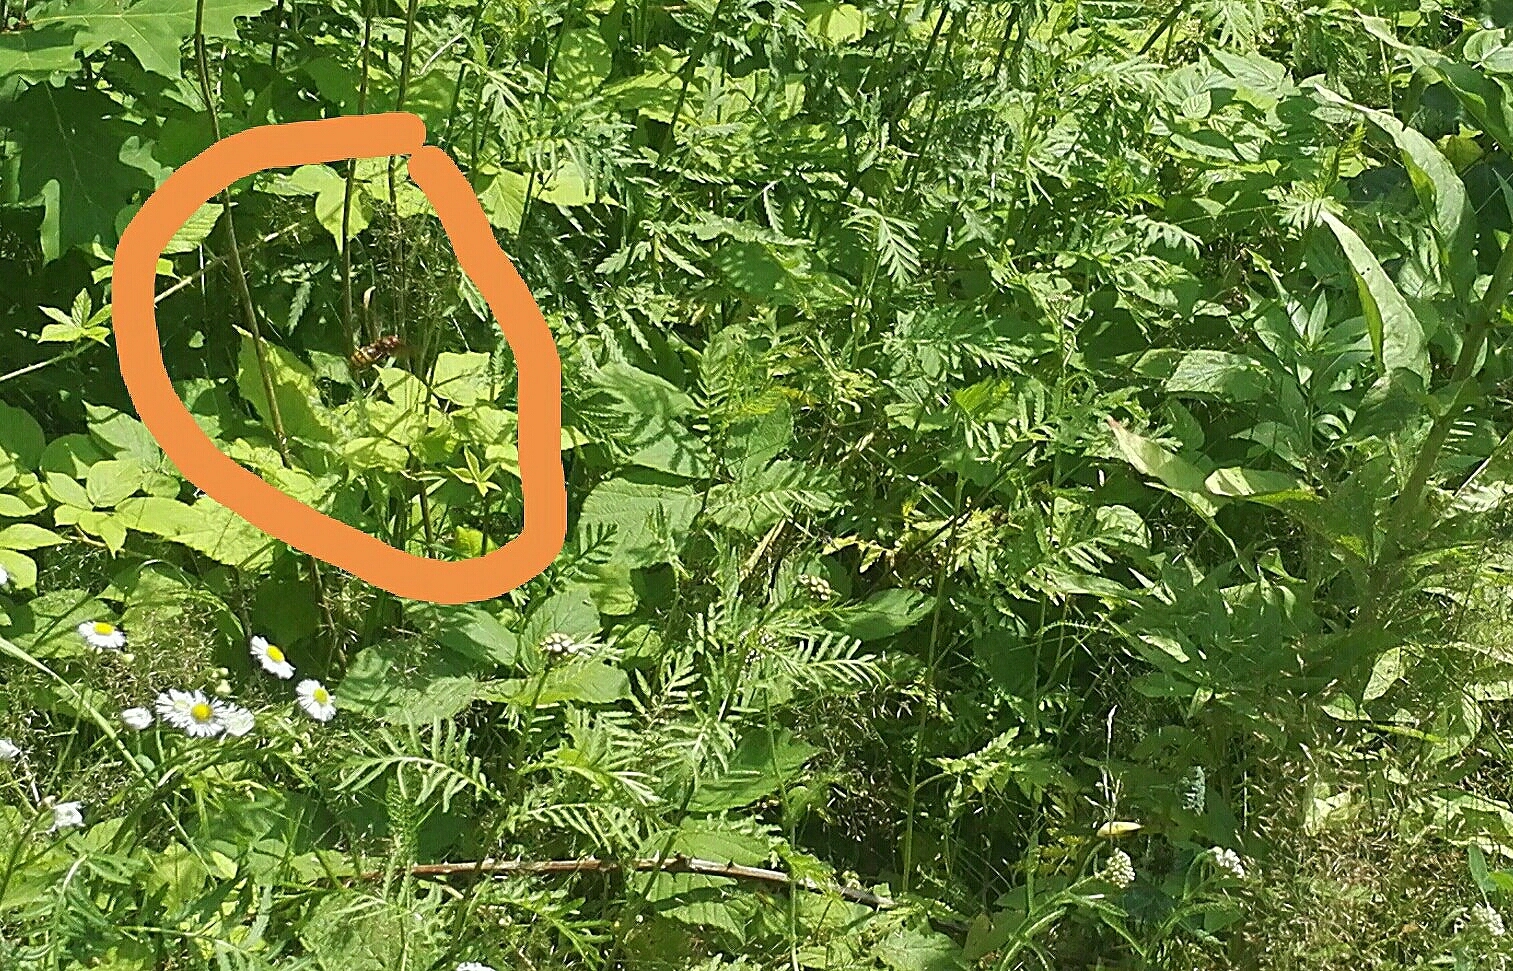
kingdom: Animalia
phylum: Arthropoda
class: Insecta
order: Hymenoptera
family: Vespidae
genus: Vespa
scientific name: Vespa crabro
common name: Hornet
